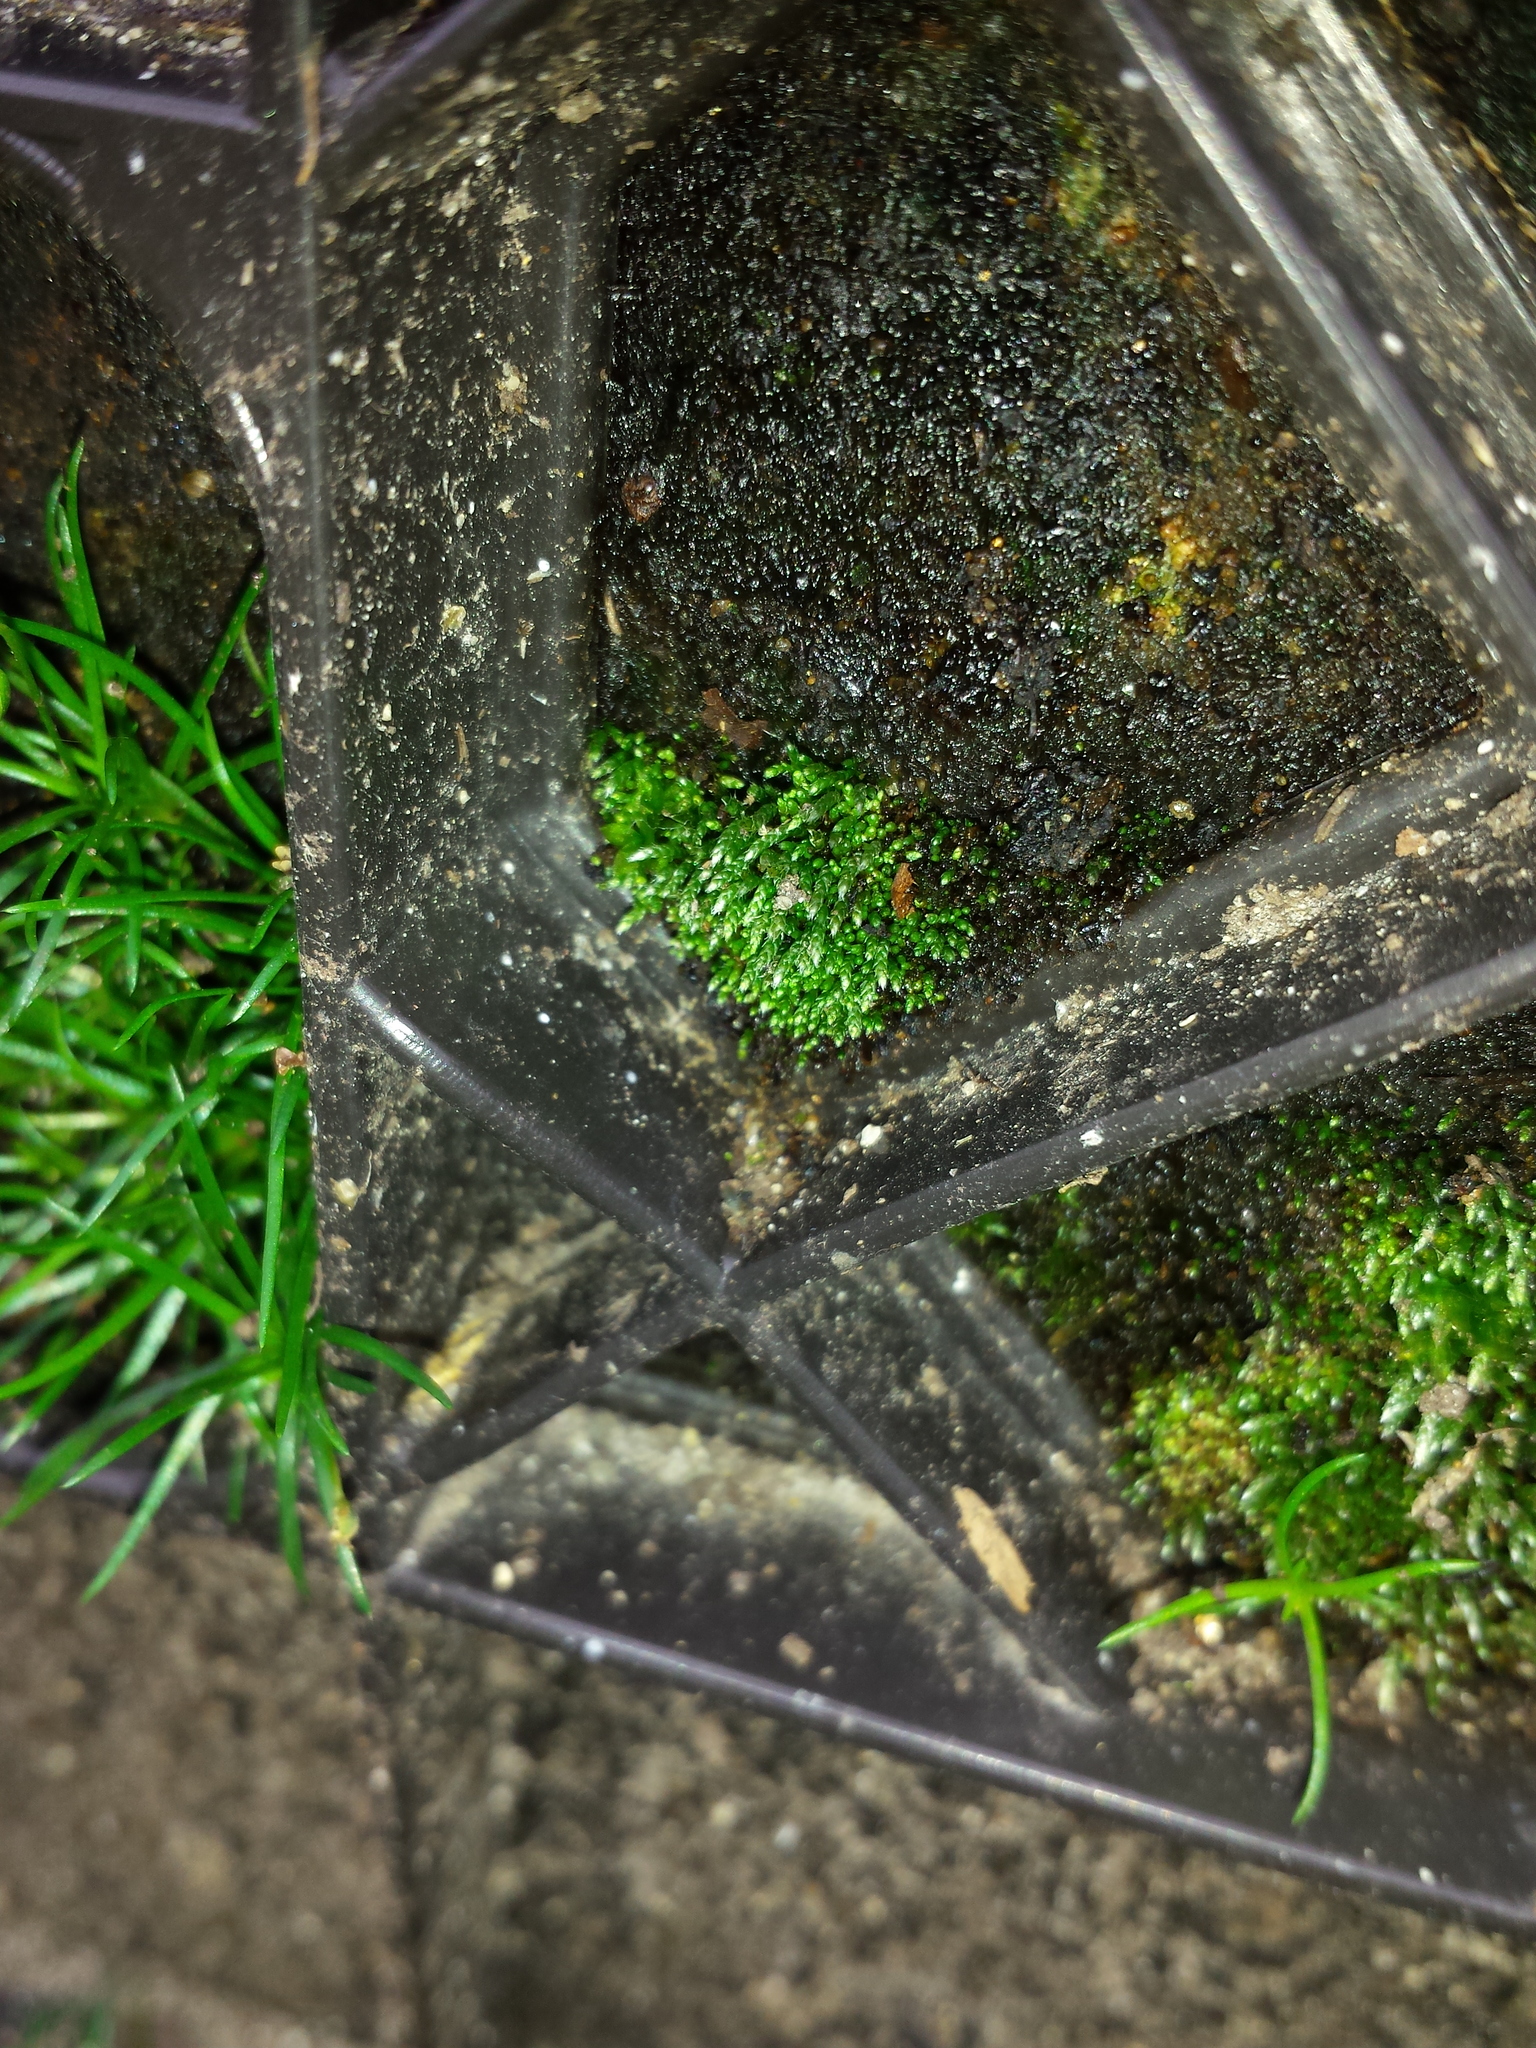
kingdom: Plantae
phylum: Bryophyta
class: Bryopsida
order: Bryales
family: Bryaceae
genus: Bryum
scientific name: Bryum argenteum
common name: Silver-moss
